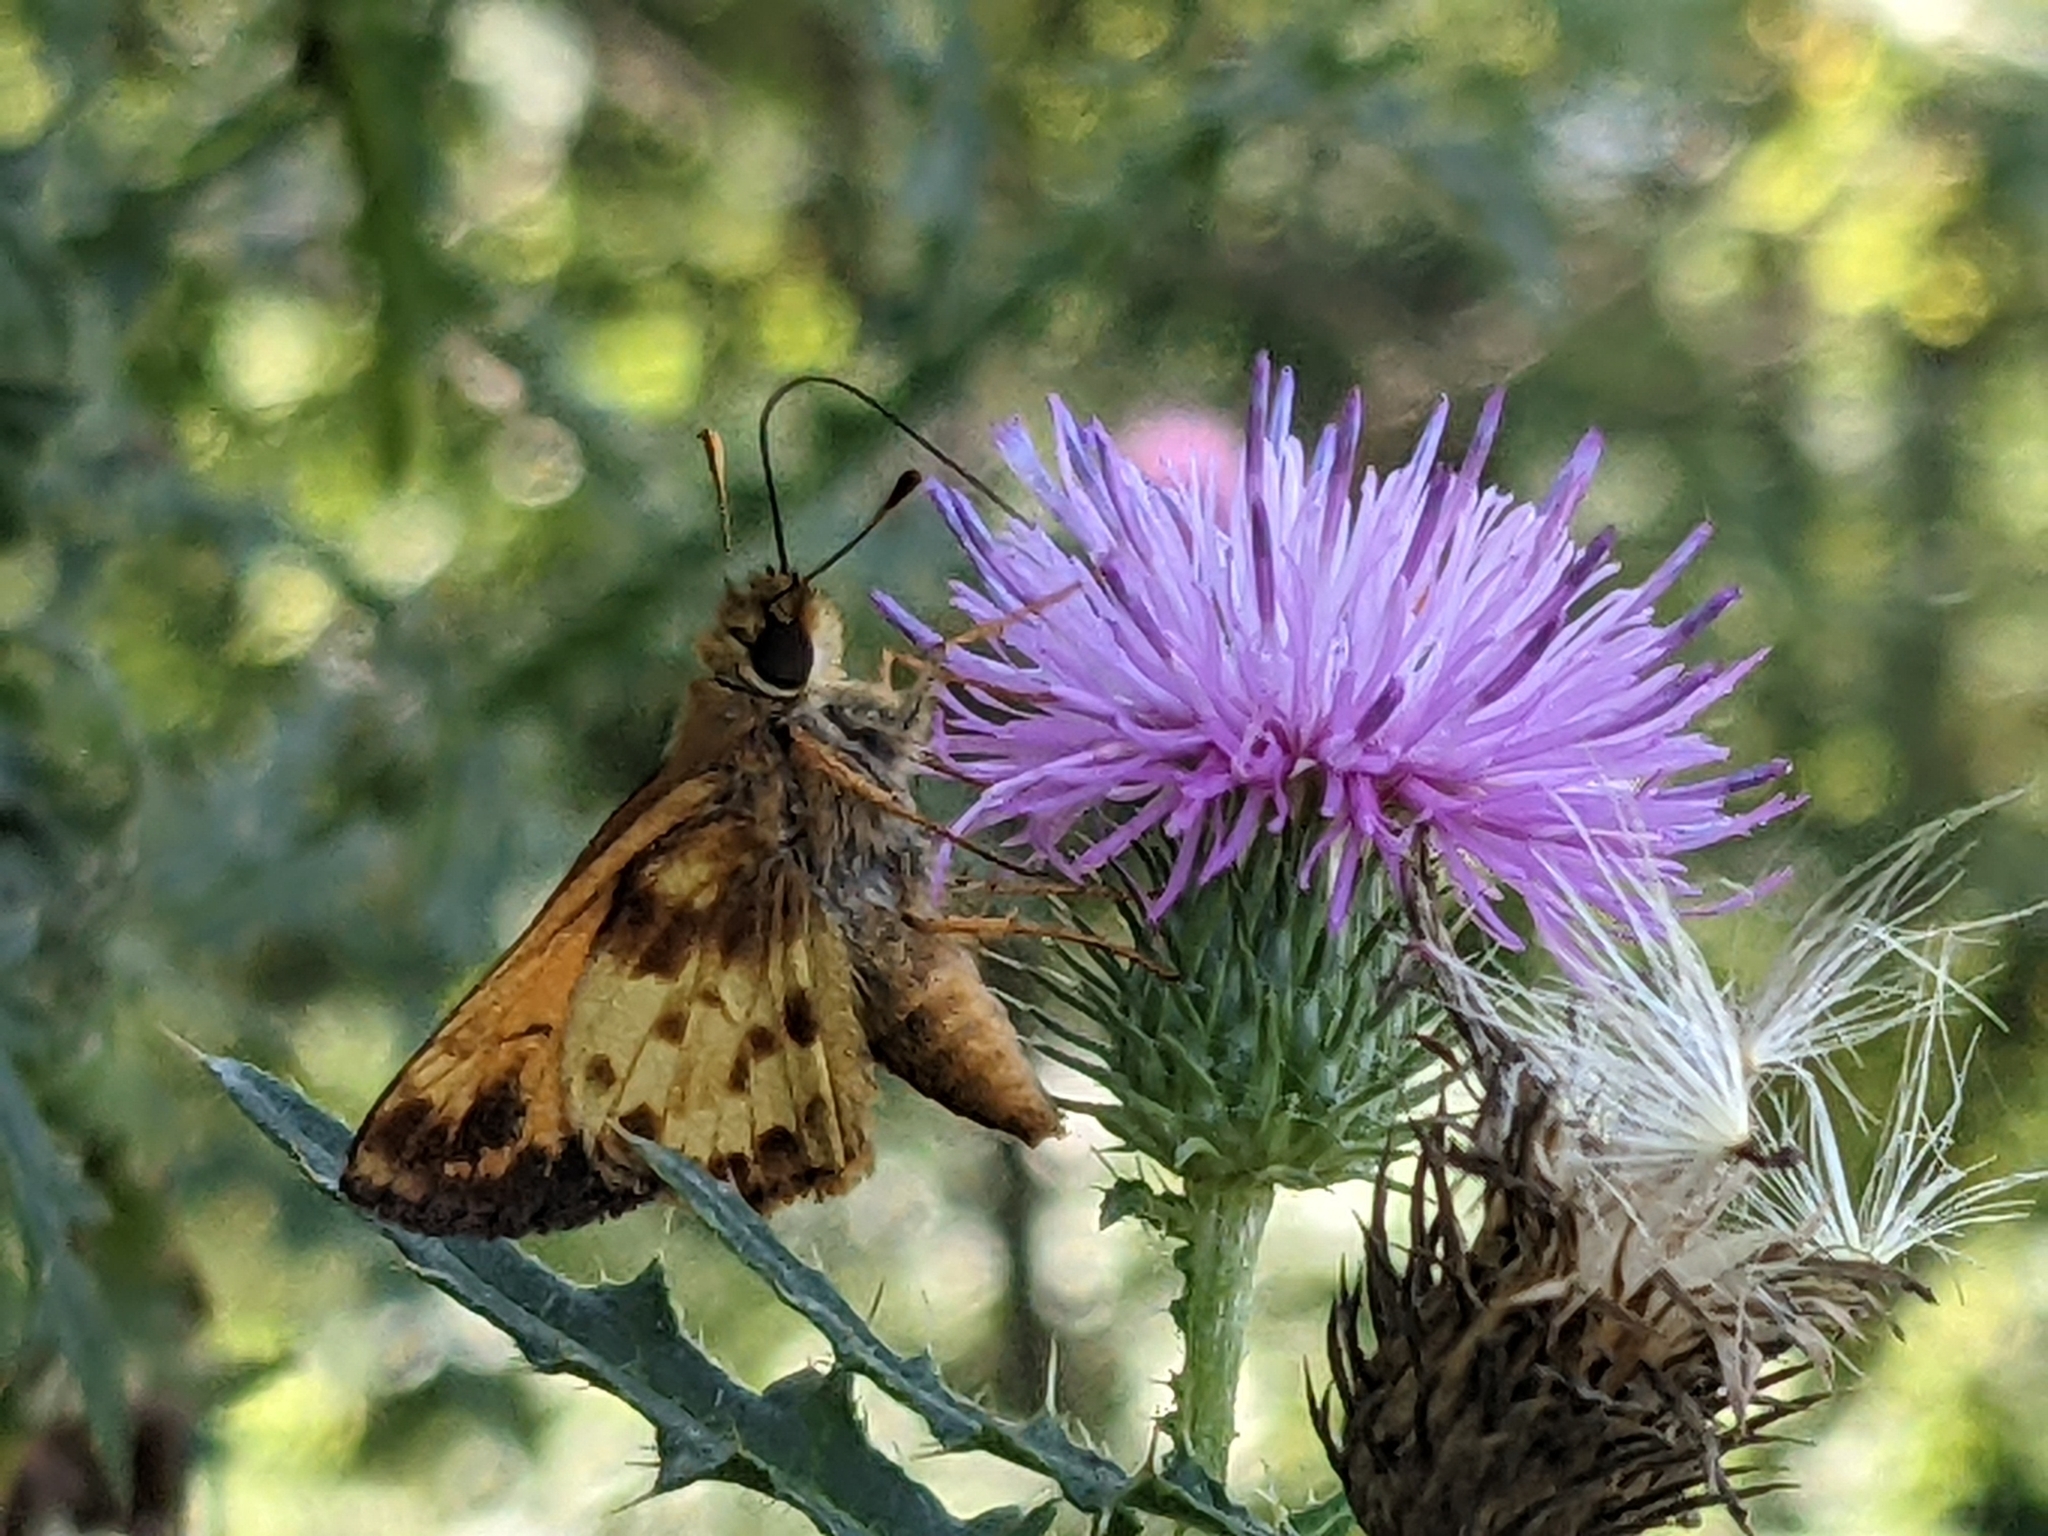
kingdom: Animalia
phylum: Arthropoda
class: Insecta
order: Lepidoptera
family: Hesperiidae
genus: Lon
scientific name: Lon zabulon
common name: Zabulon skipper
